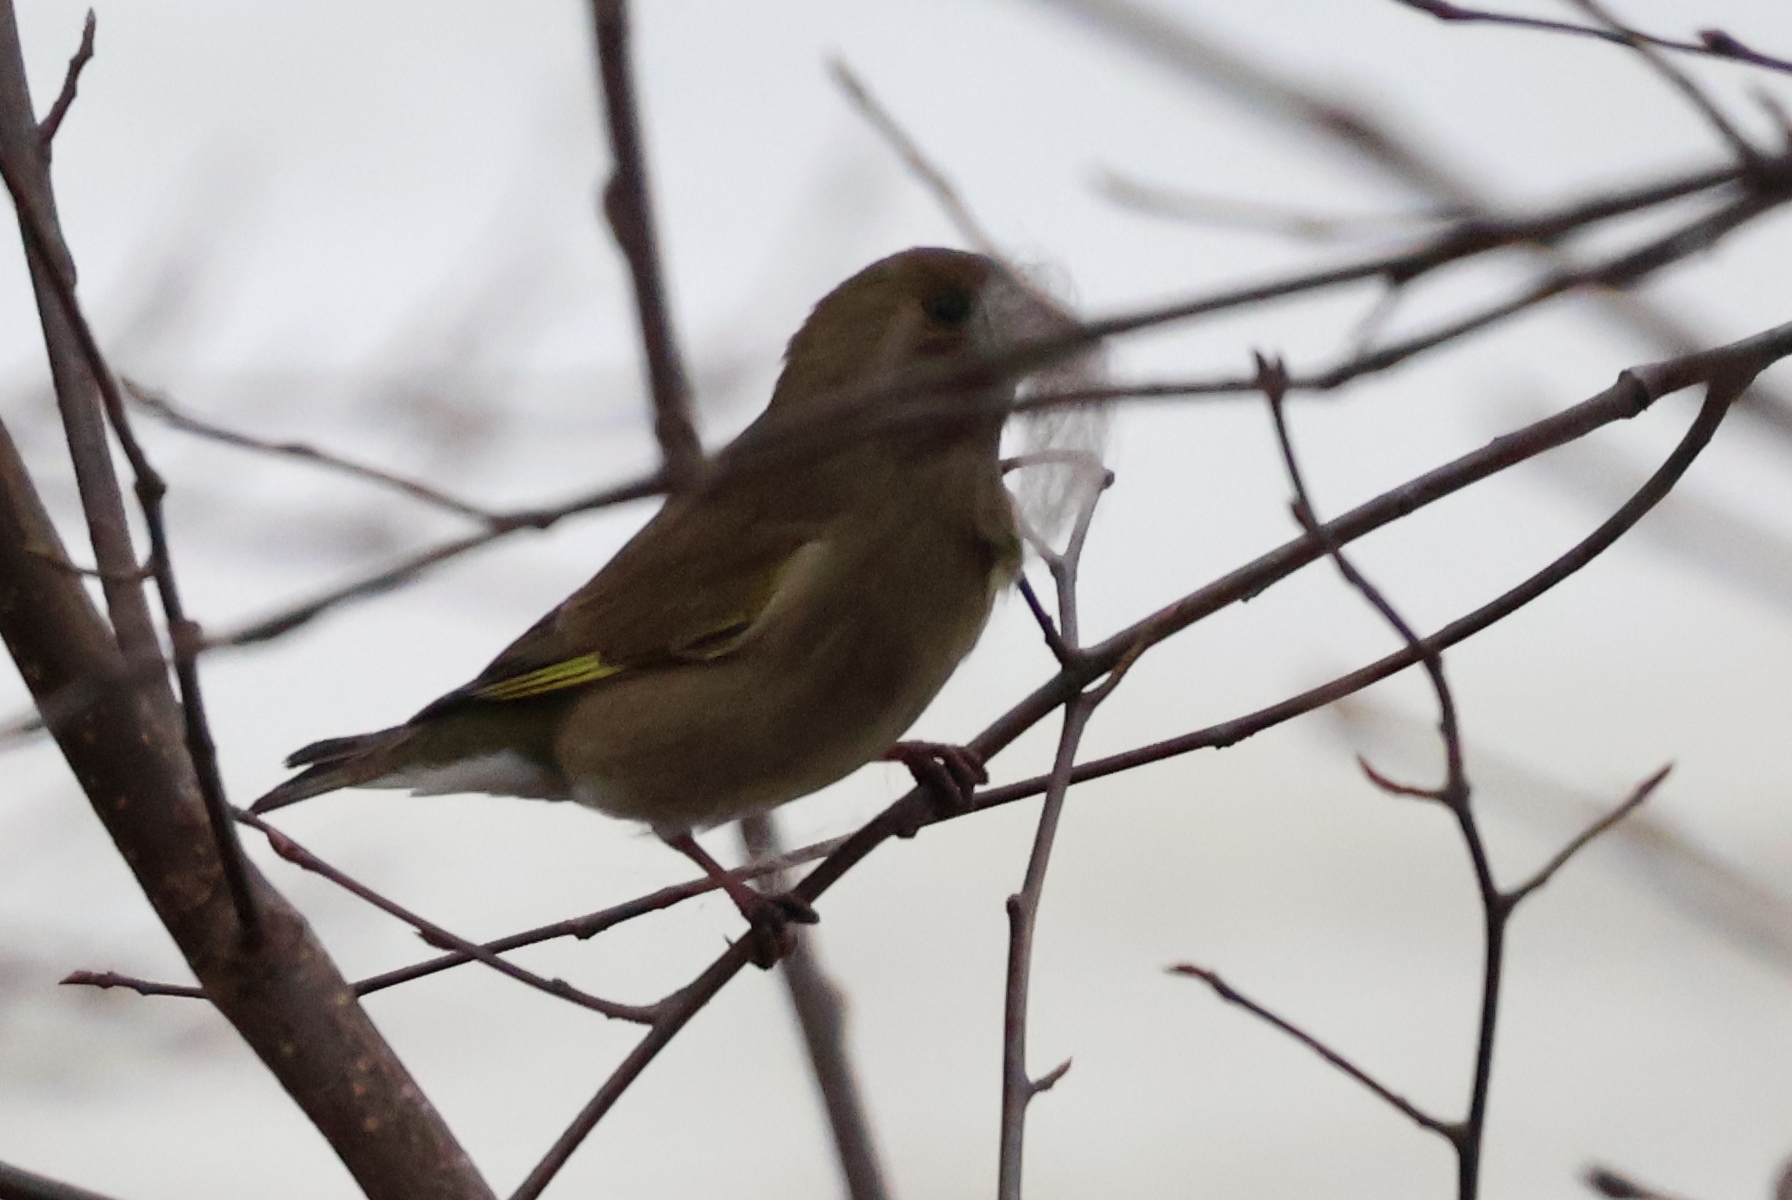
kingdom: Plantae
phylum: Tracheophyta
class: Liliopsida
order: Poales
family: Poaceae
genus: Chloris
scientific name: Chloris chloris
